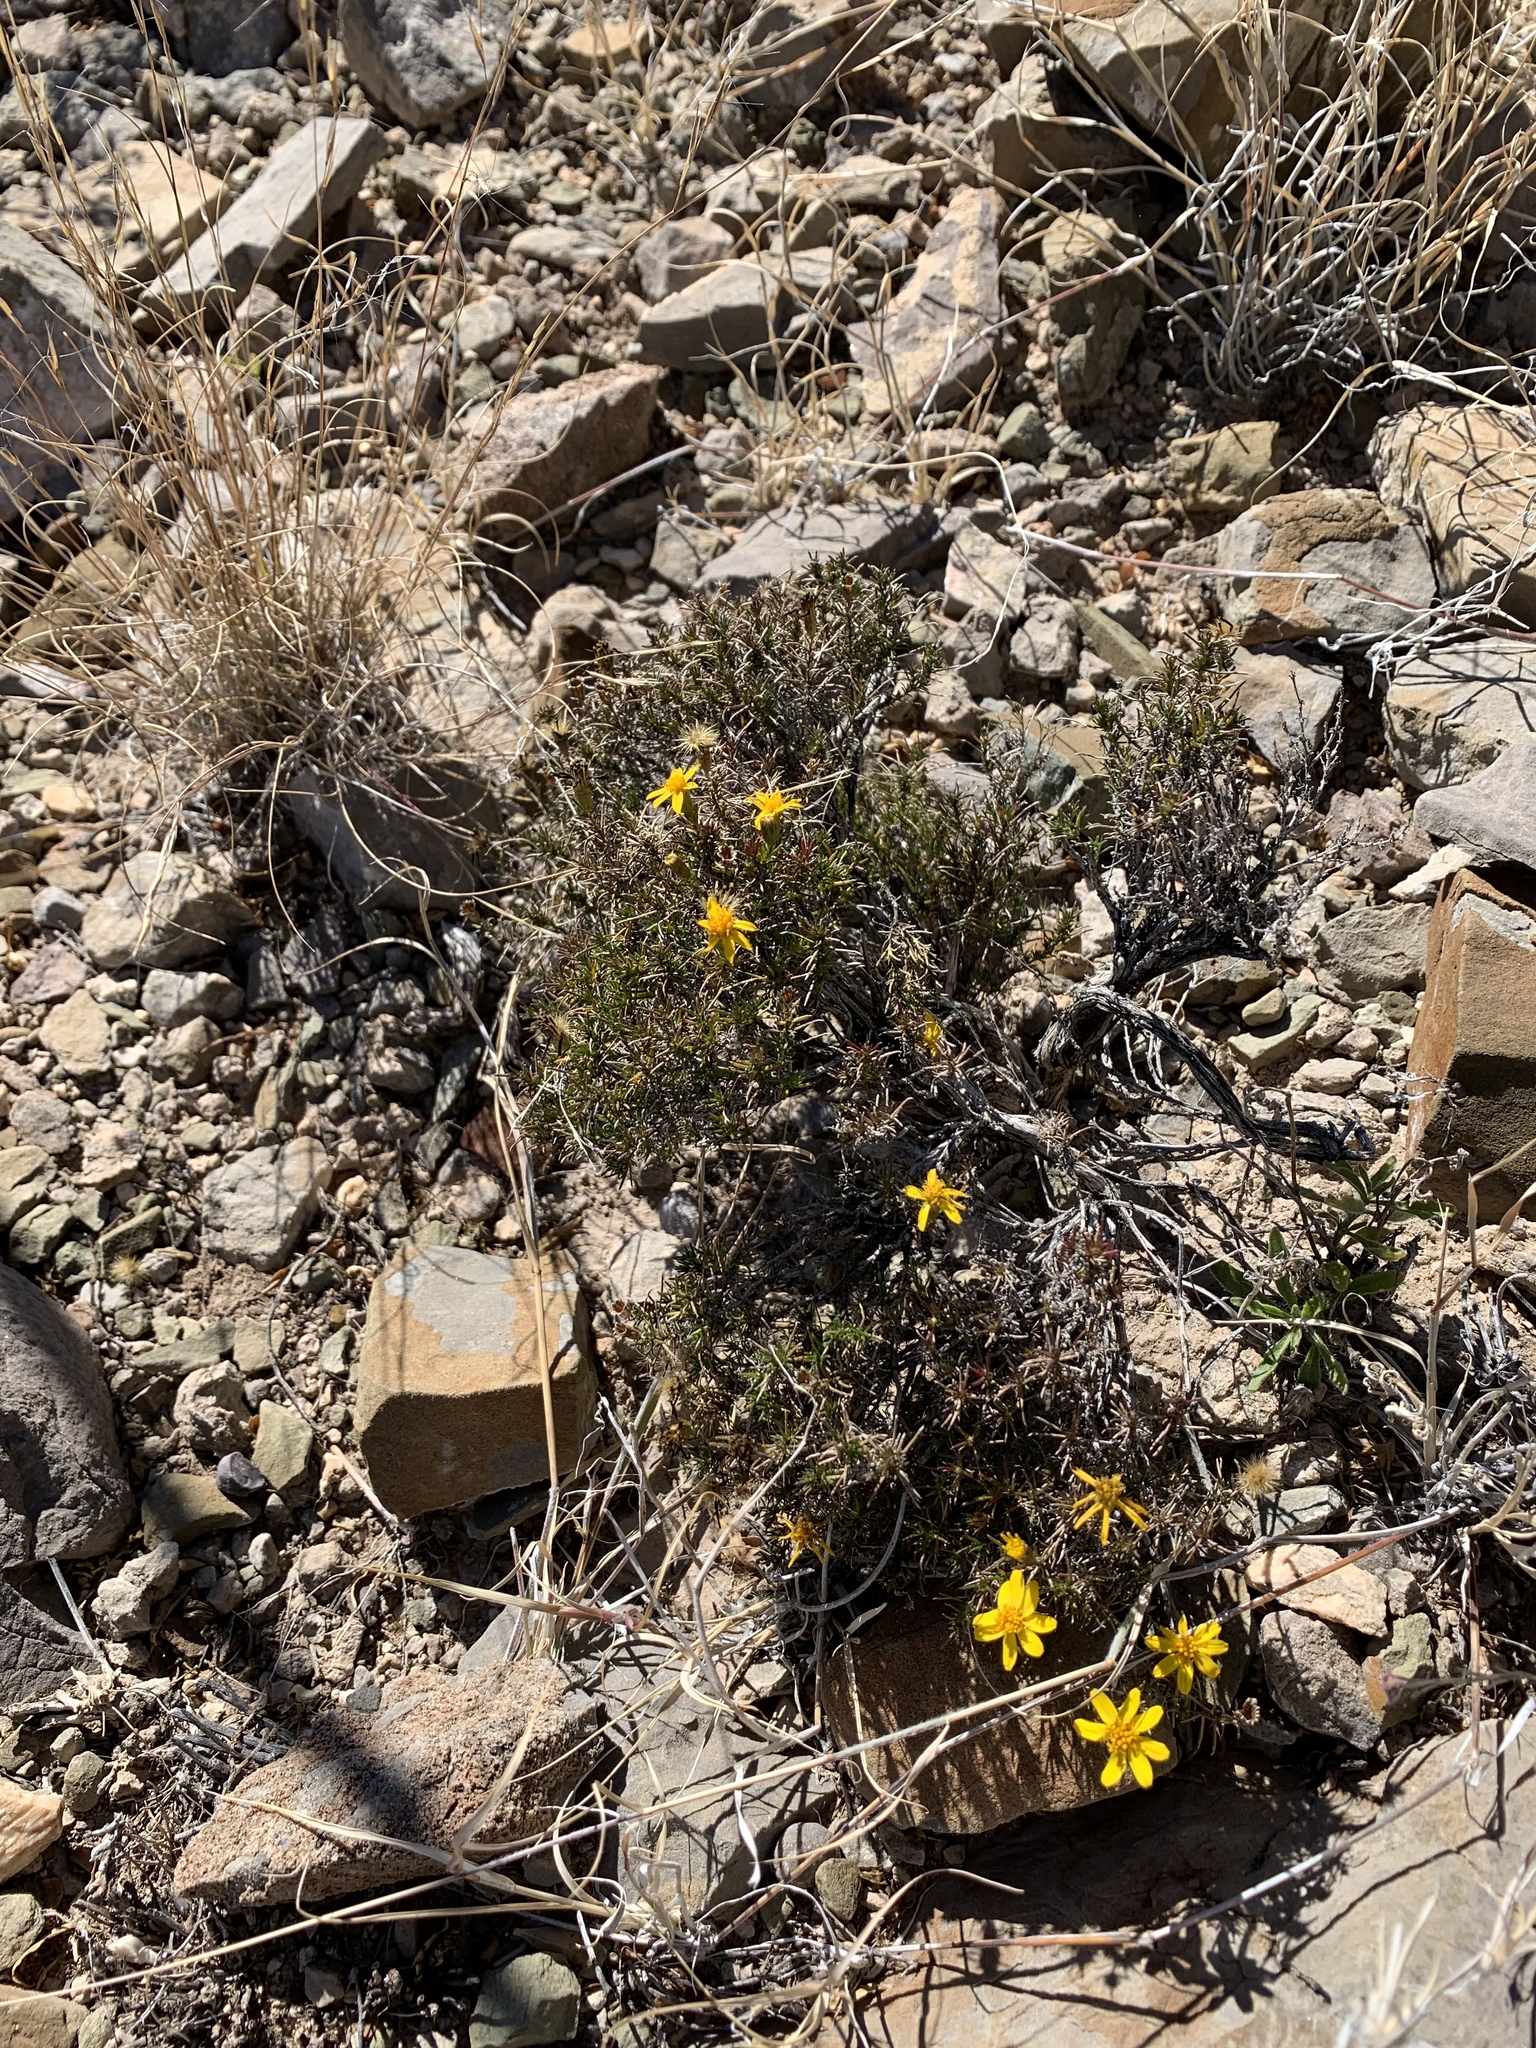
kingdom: Plantae
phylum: Tracheophyta
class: Magnoliopsida
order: Asterales
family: Asteraceae
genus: Thymophylla
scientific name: Thymophylla acerosa
